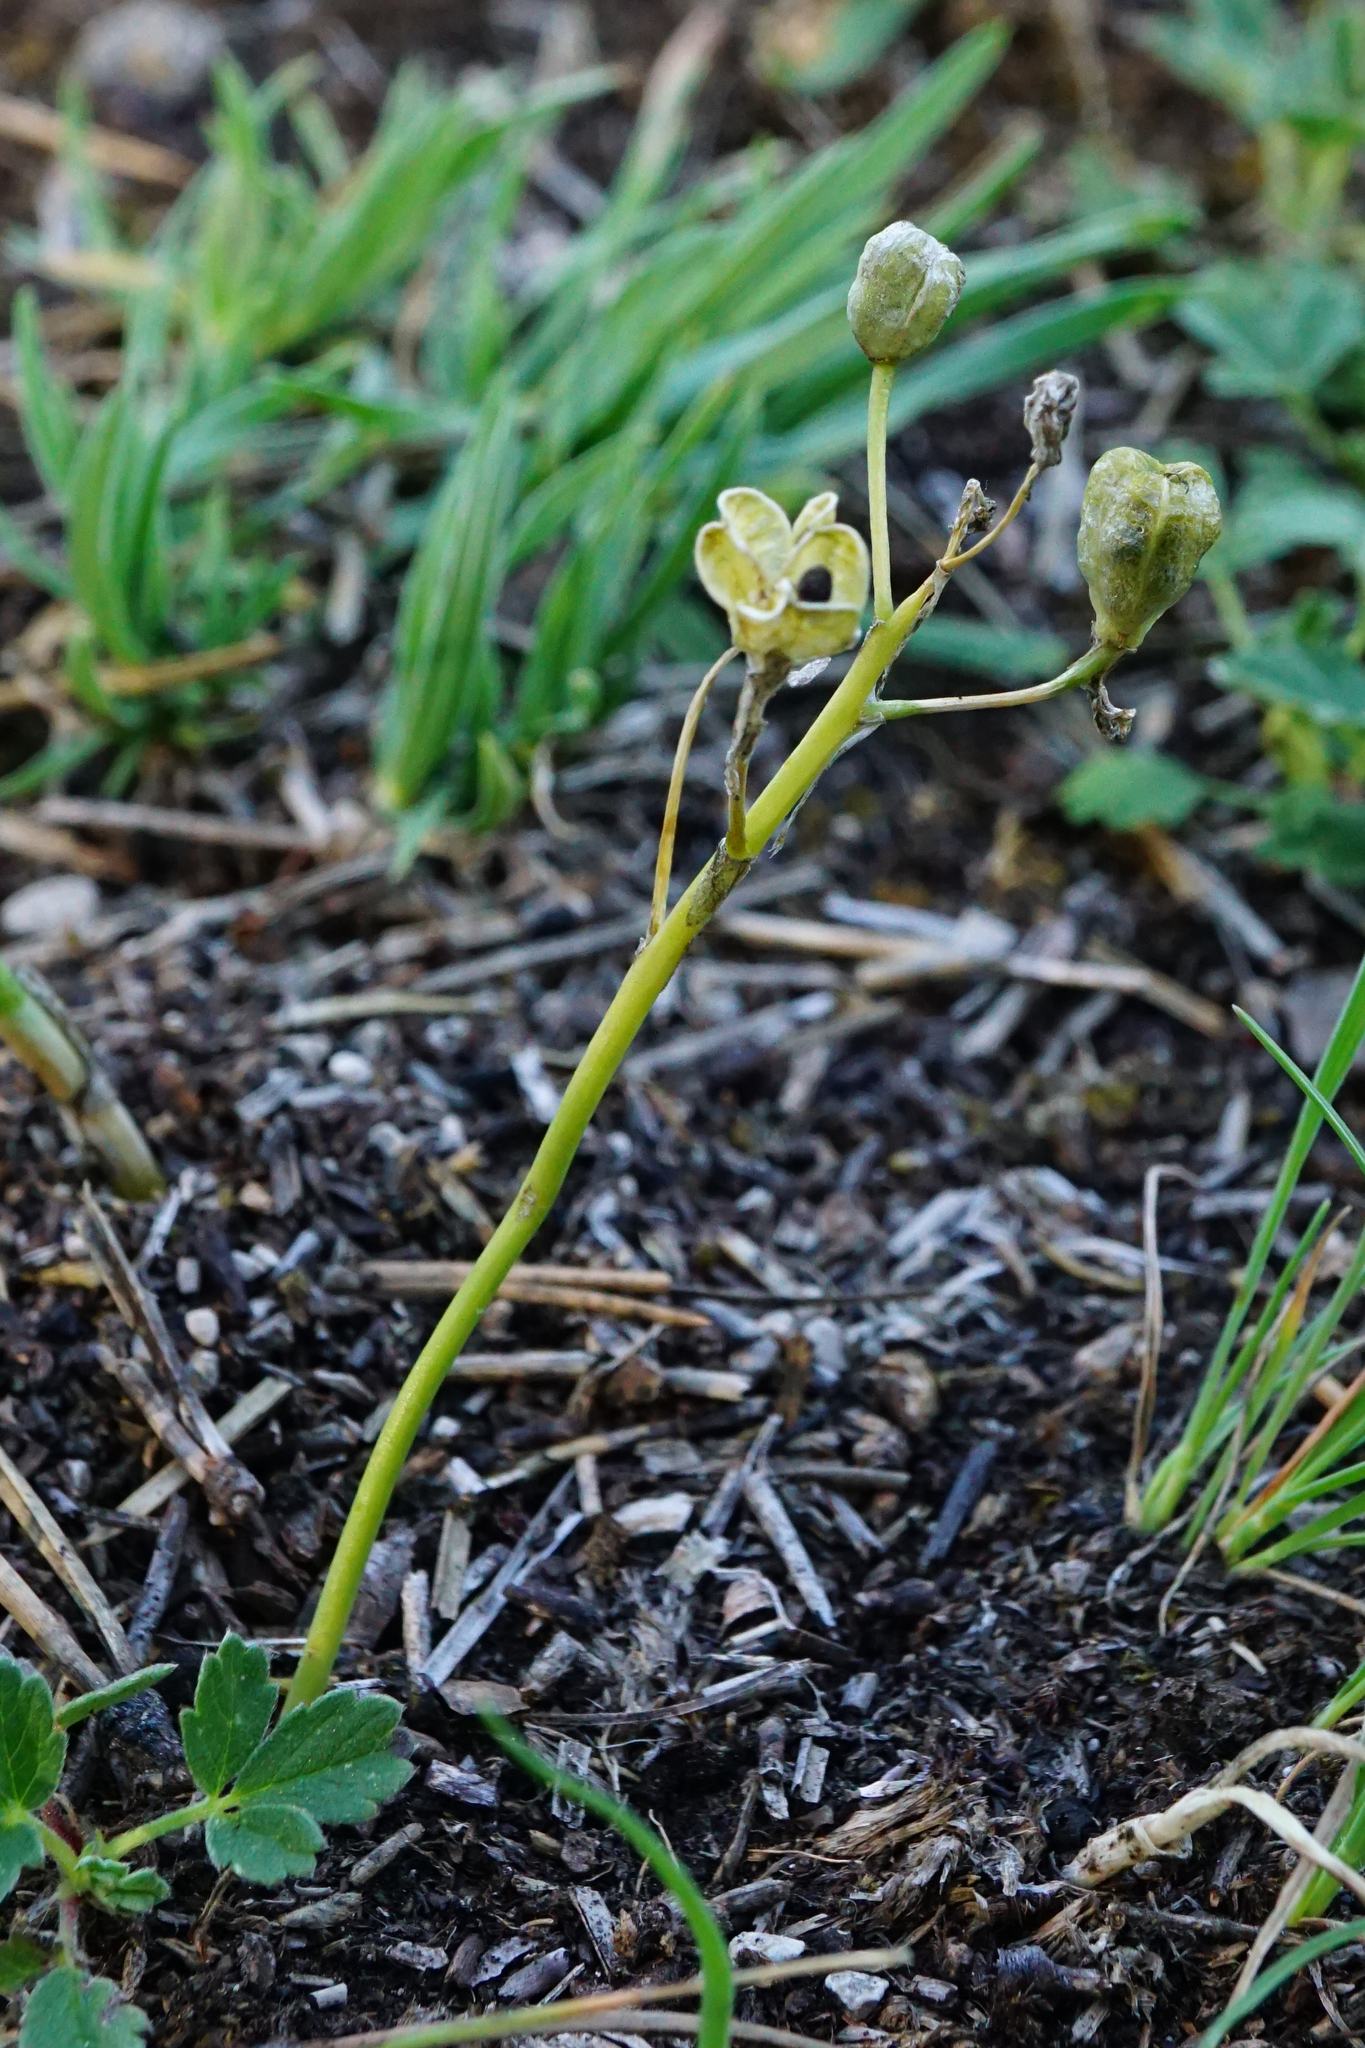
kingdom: Plantae
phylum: Tracheophyta
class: Liliopsida
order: Asparagales
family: Asparagaceae
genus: Ornithogalum
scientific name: Ornithogalum comosum
